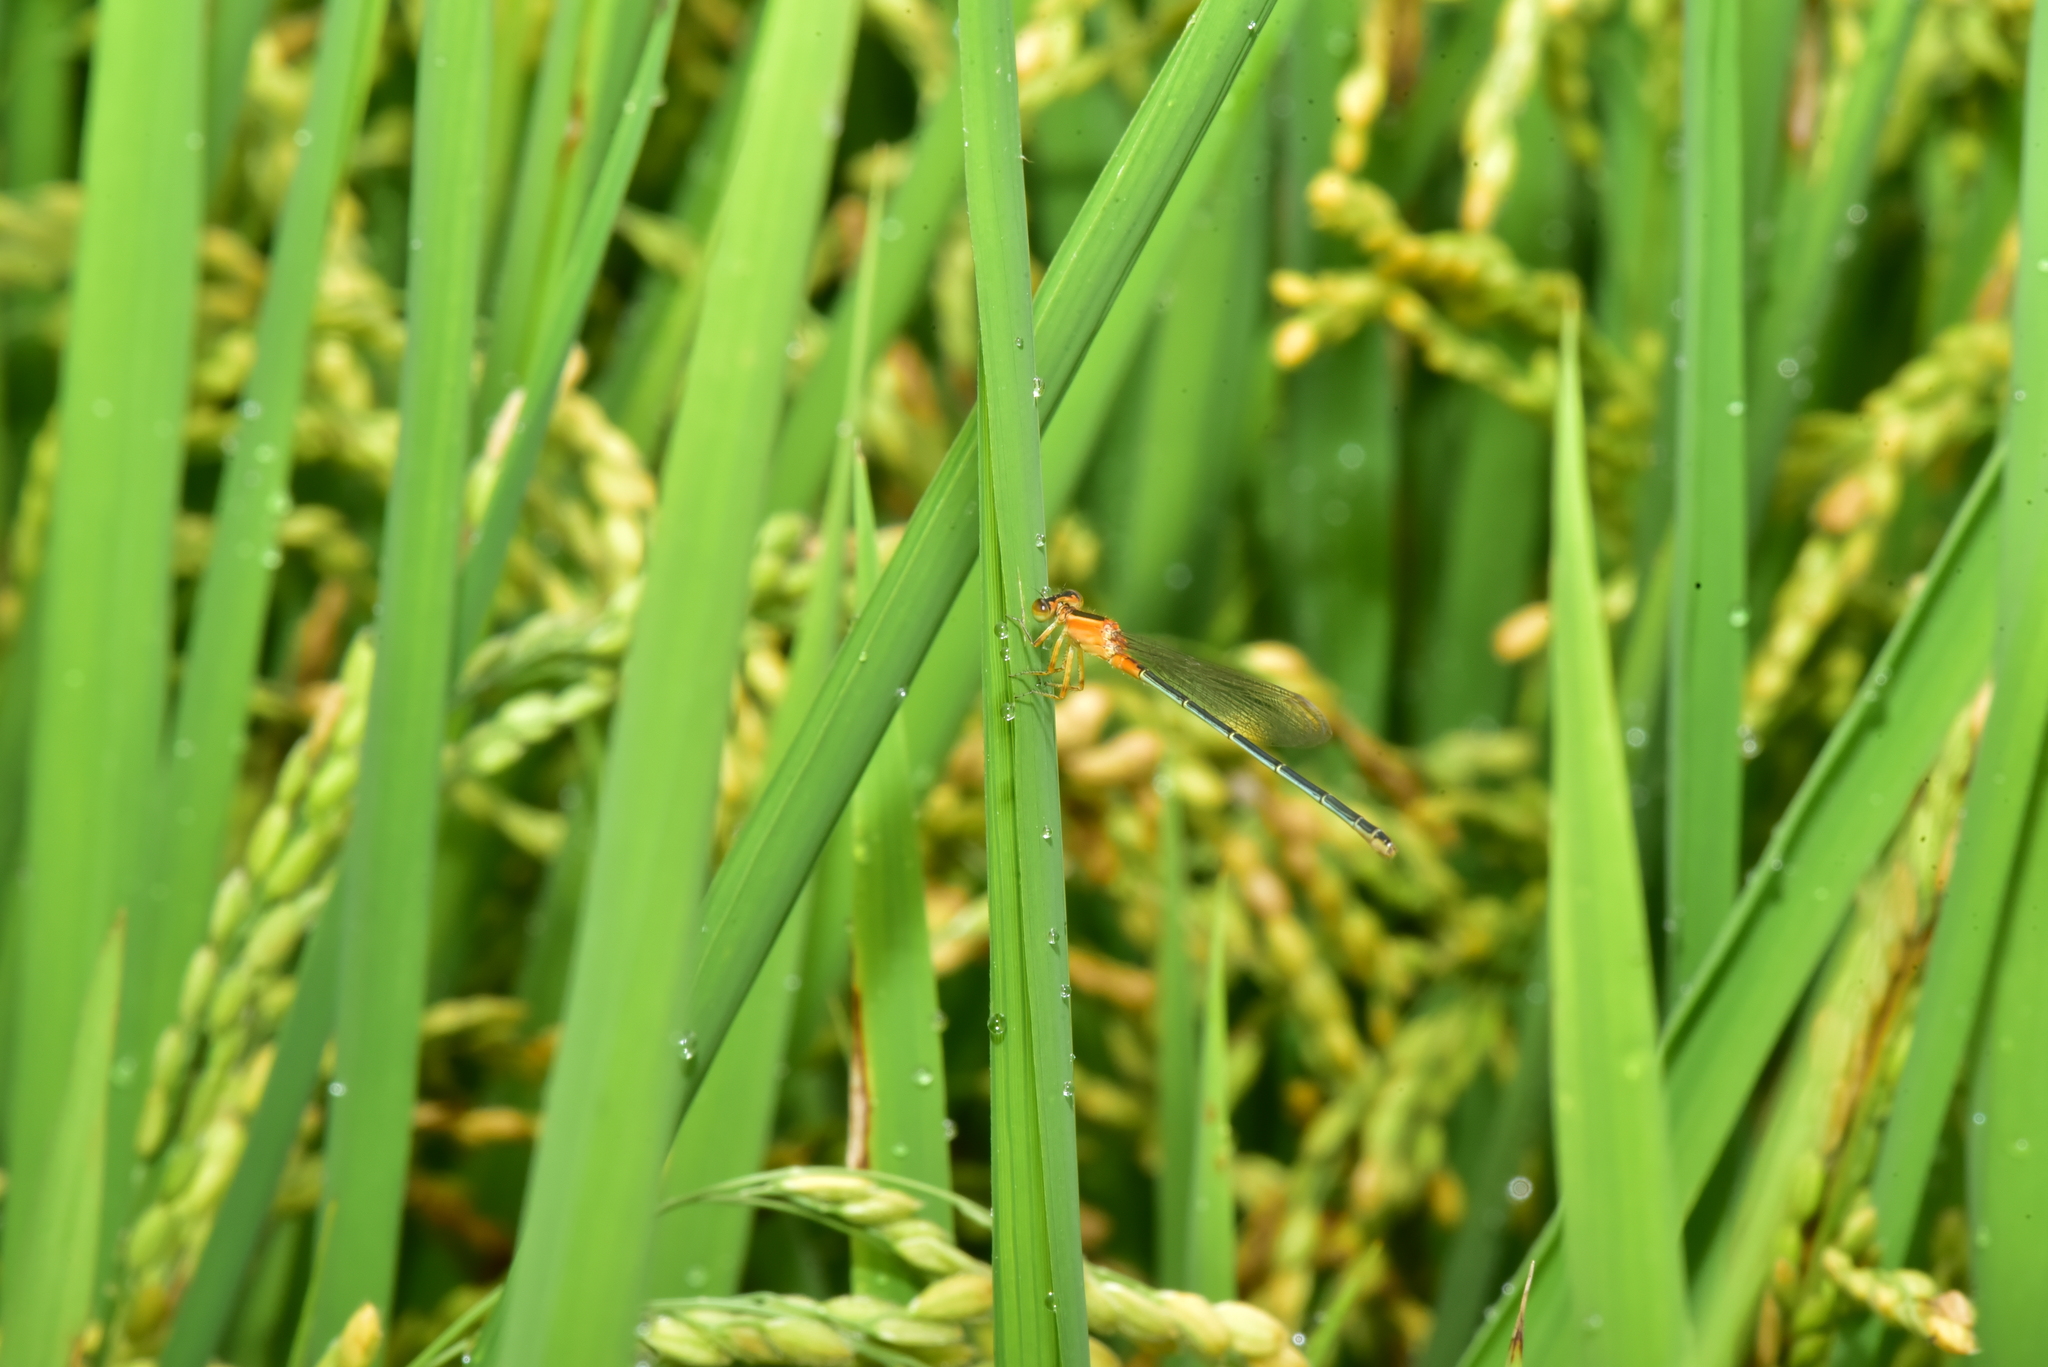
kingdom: Animalia
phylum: Arthropoda
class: Insecta
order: Odonata
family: Coenagrionidae
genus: Ischnura
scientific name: Ischnura senegalensis
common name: Tropical bluetail
